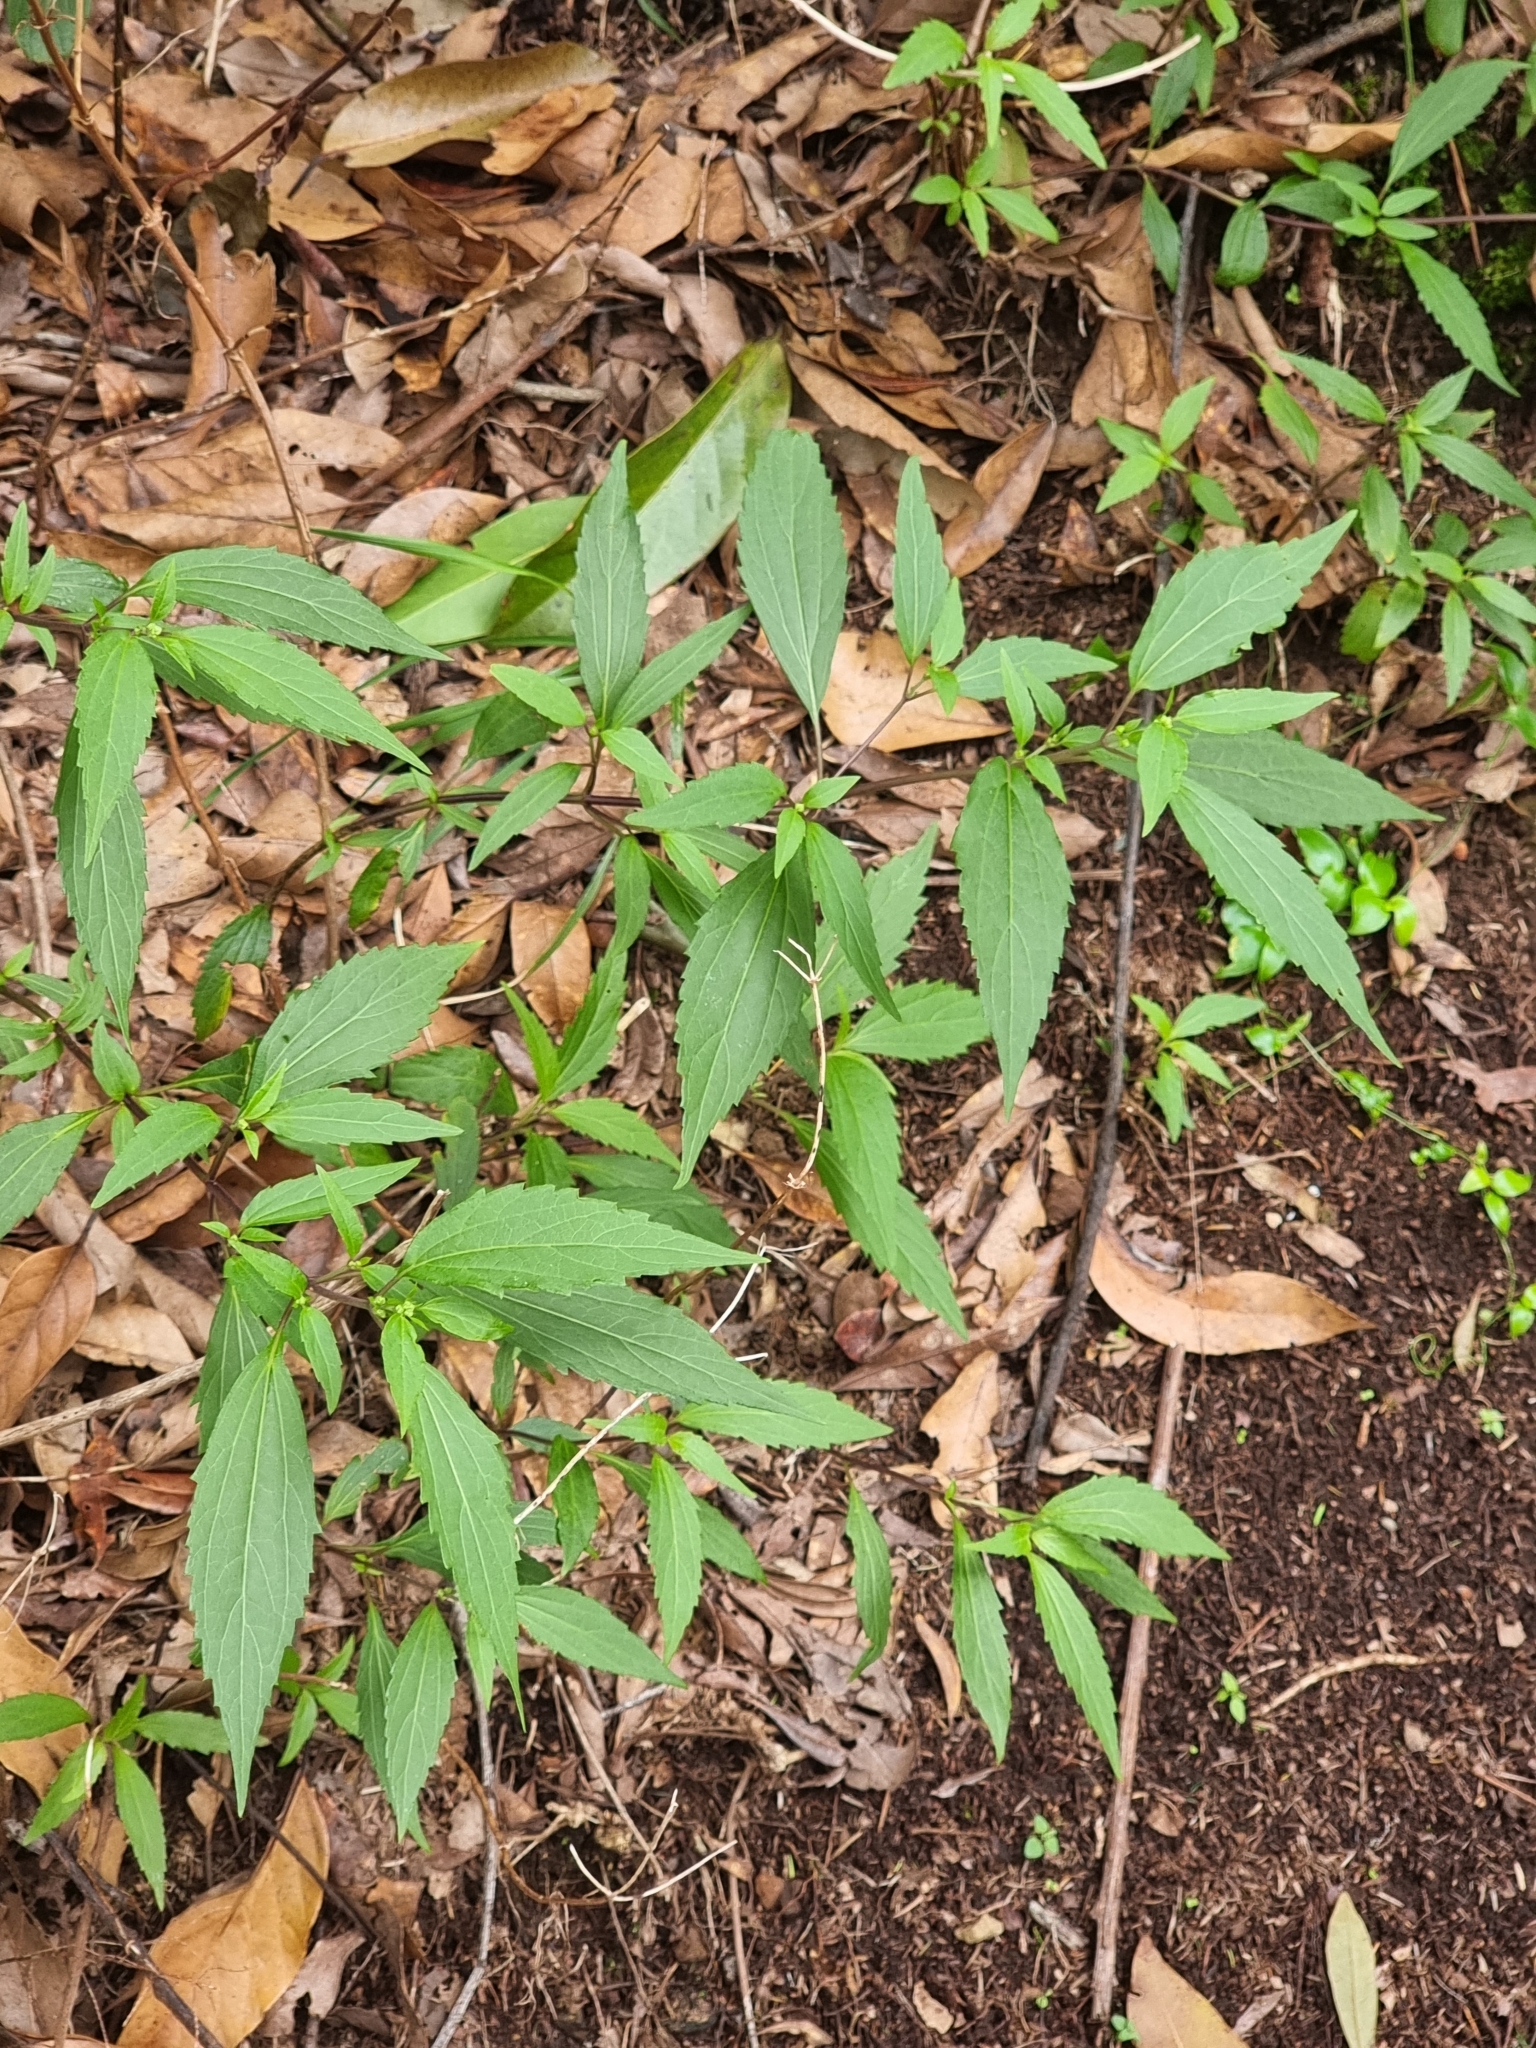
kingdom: Plantae
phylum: Tracheophyta
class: Magnoliopsida
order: Asterales
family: Asteraceae
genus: Ageratina
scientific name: Ageratina riparia
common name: Creeping croftonweed
